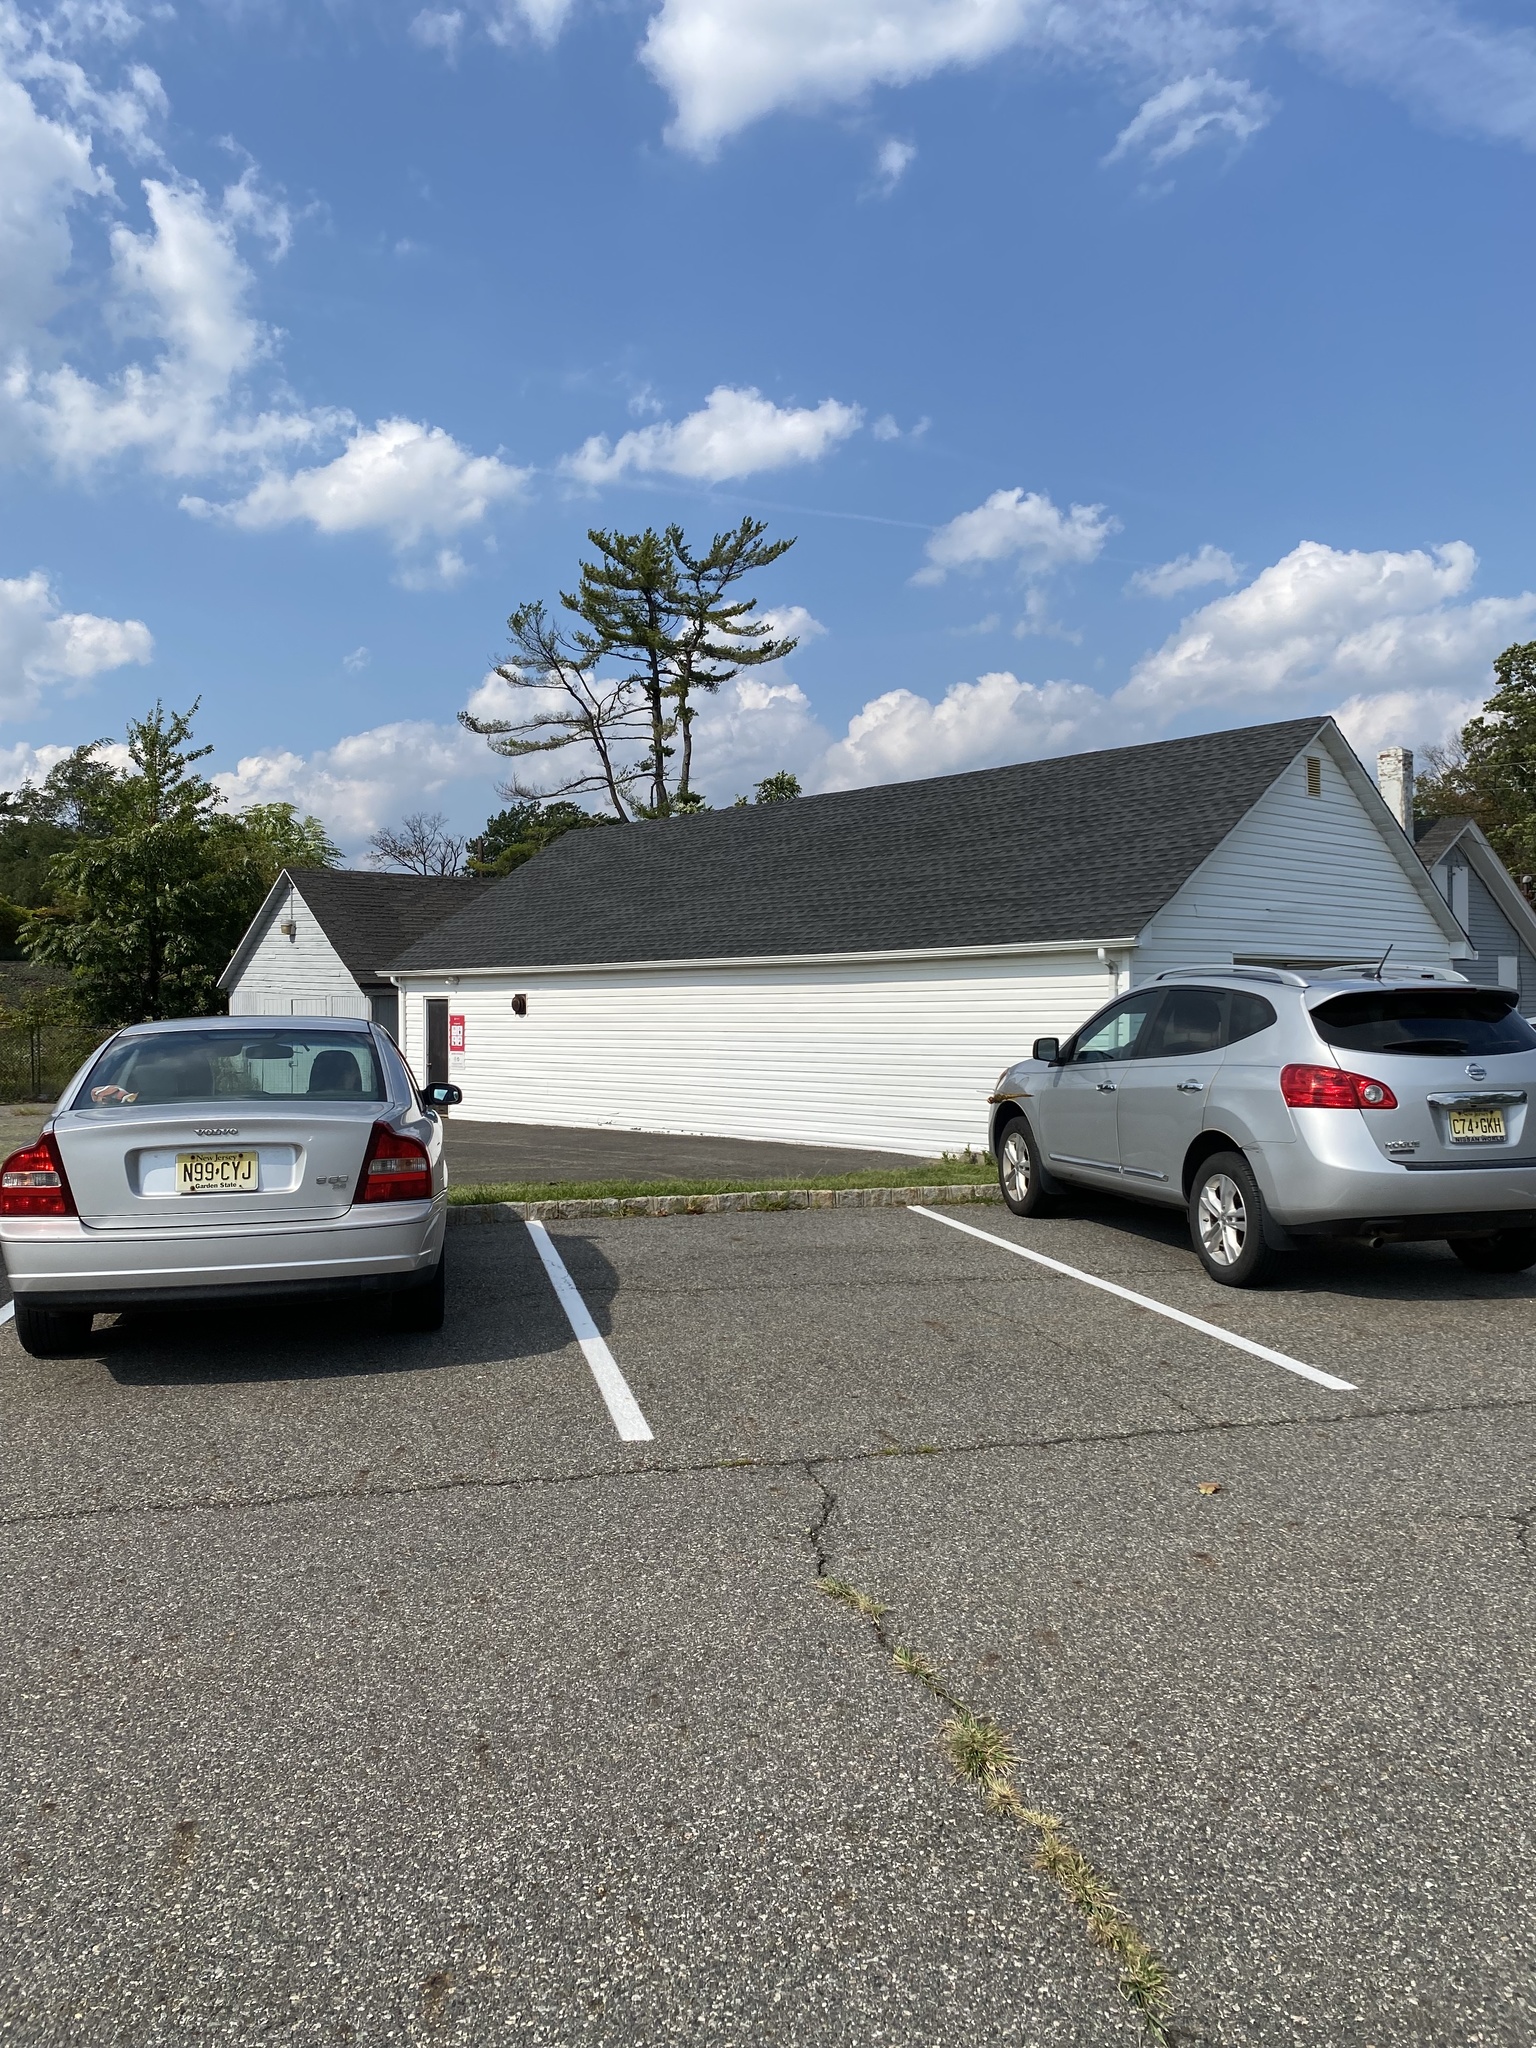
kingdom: Animalia
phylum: Arthropoda
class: Insecta
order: Odonata
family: Libellulidae
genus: Pantala
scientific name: Pantala flavescens
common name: Wandering glider
